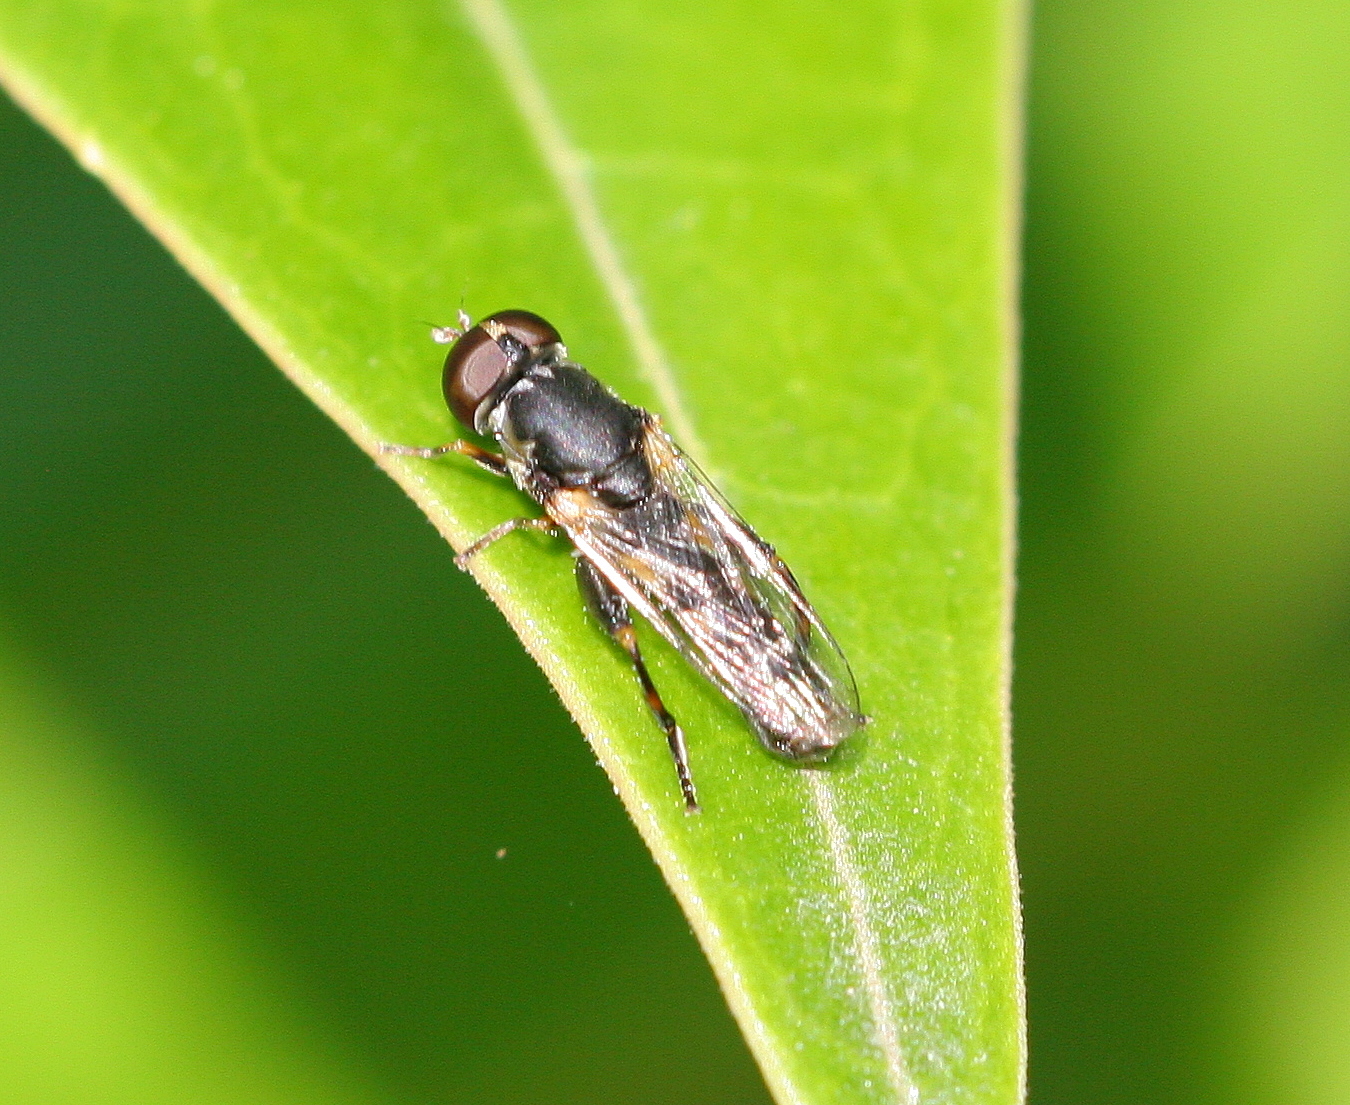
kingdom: Animalia
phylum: Arthropoda
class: Insecta
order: Diptera
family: Syrphidae
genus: Syritta
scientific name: Syritta pipiens
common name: Hover fly
